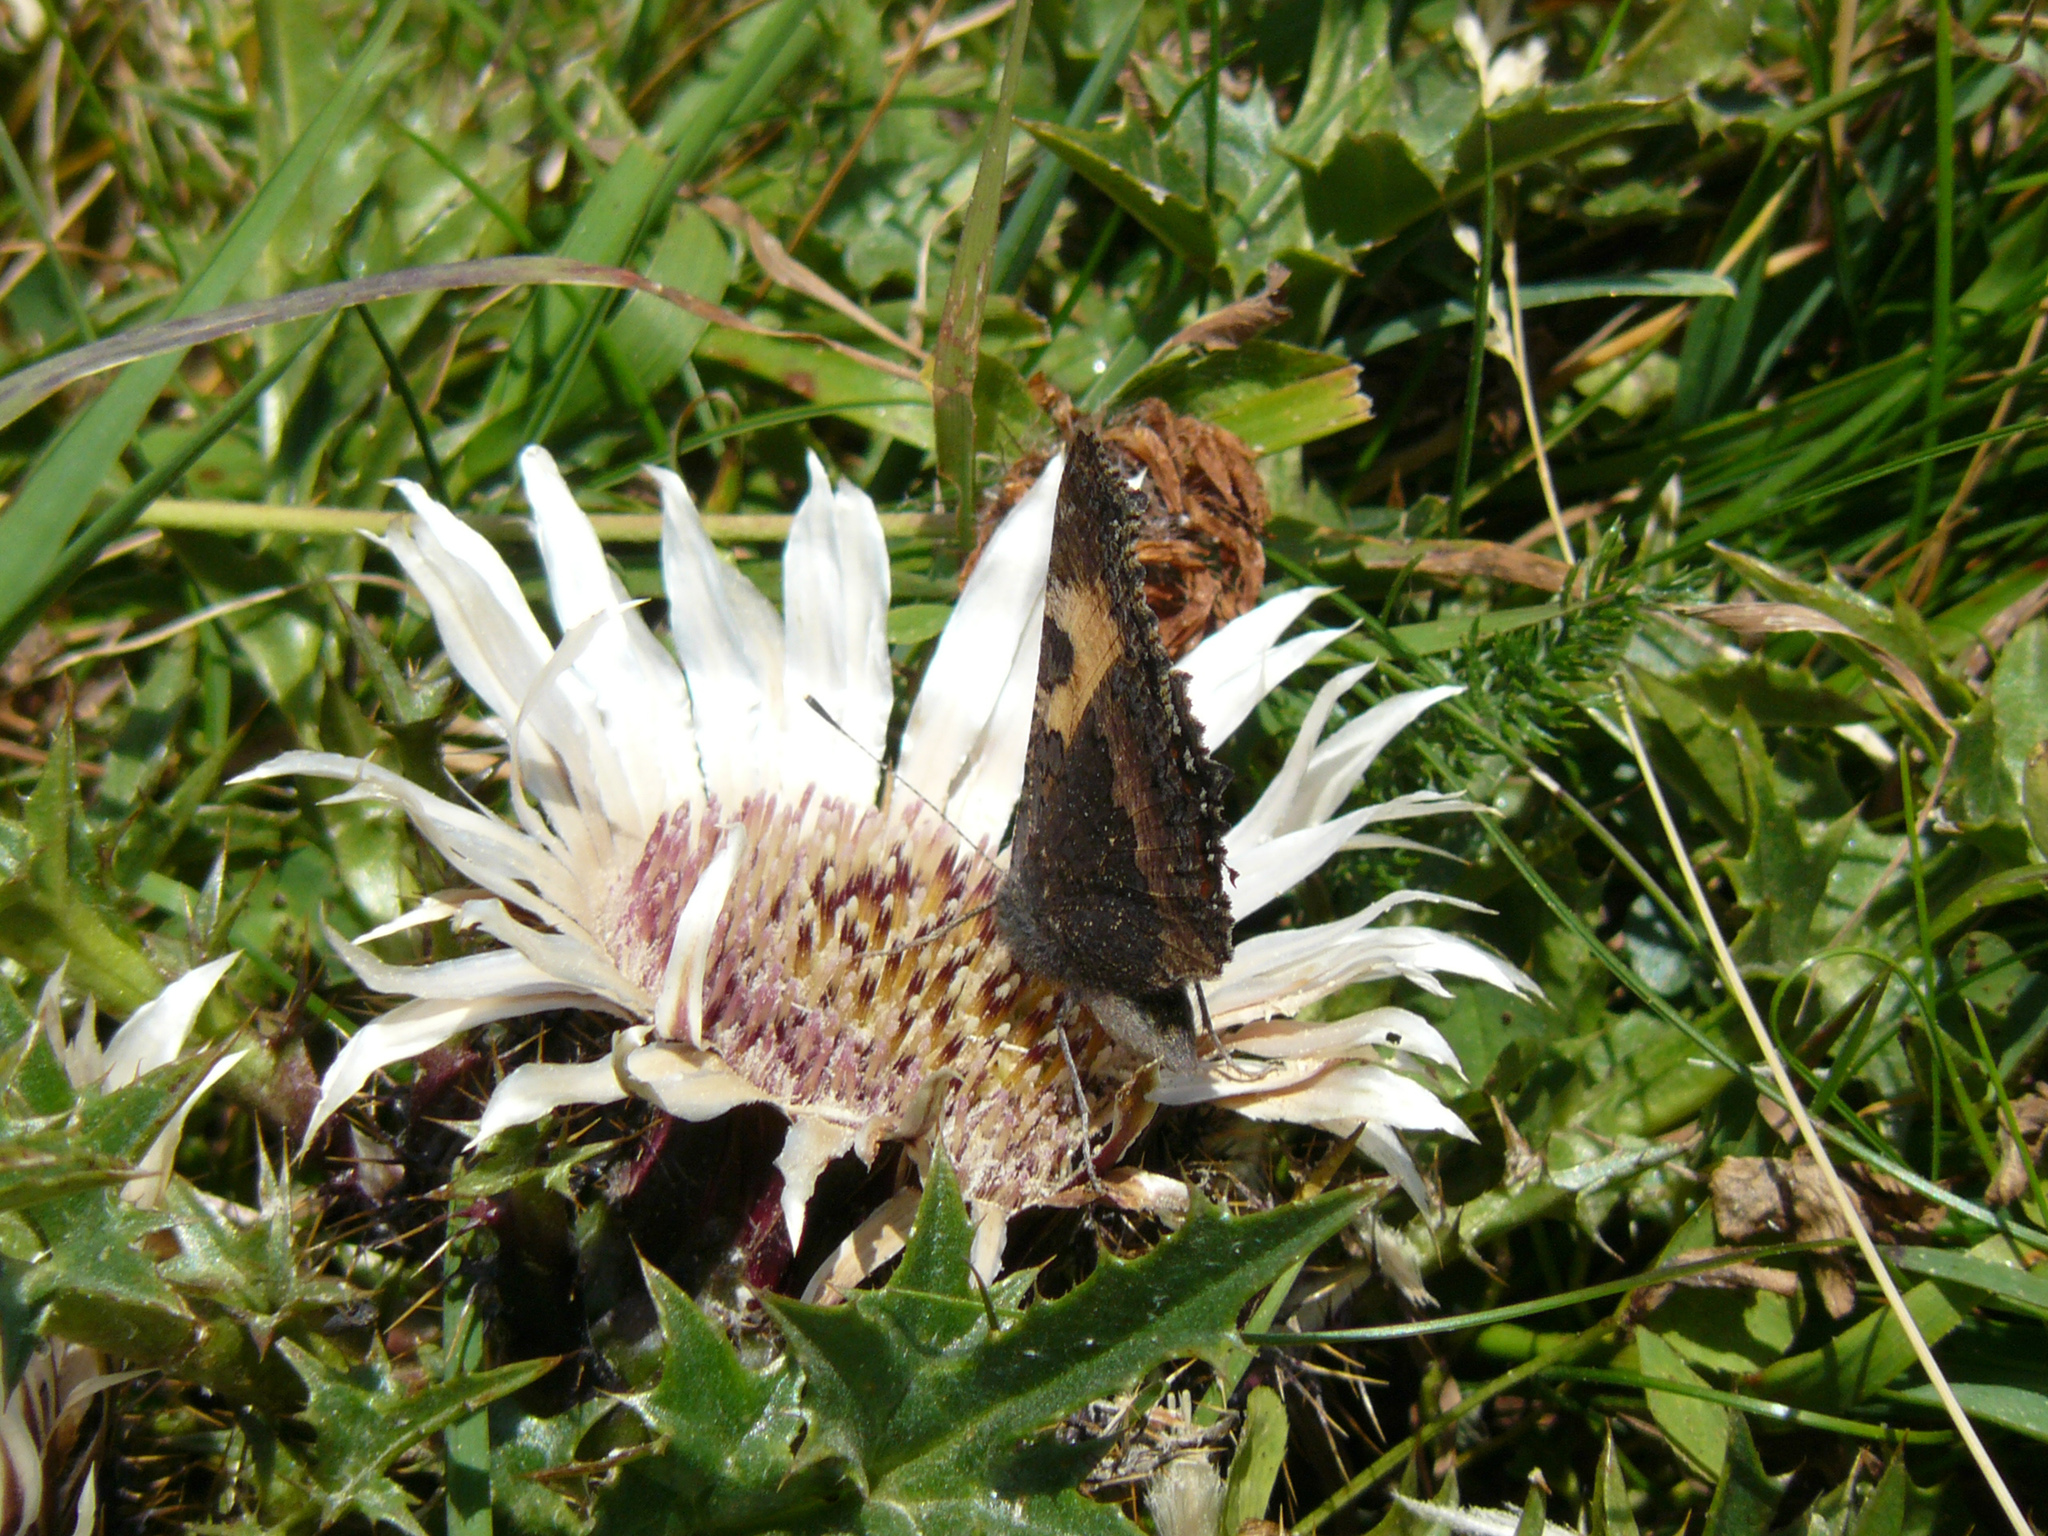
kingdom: Animalia
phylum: Arthropoda
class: Insecta
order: Lepidoptera
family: Nymphalidae
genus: Aglais
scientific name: Aglais urticae
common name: Small tortoiseshell
